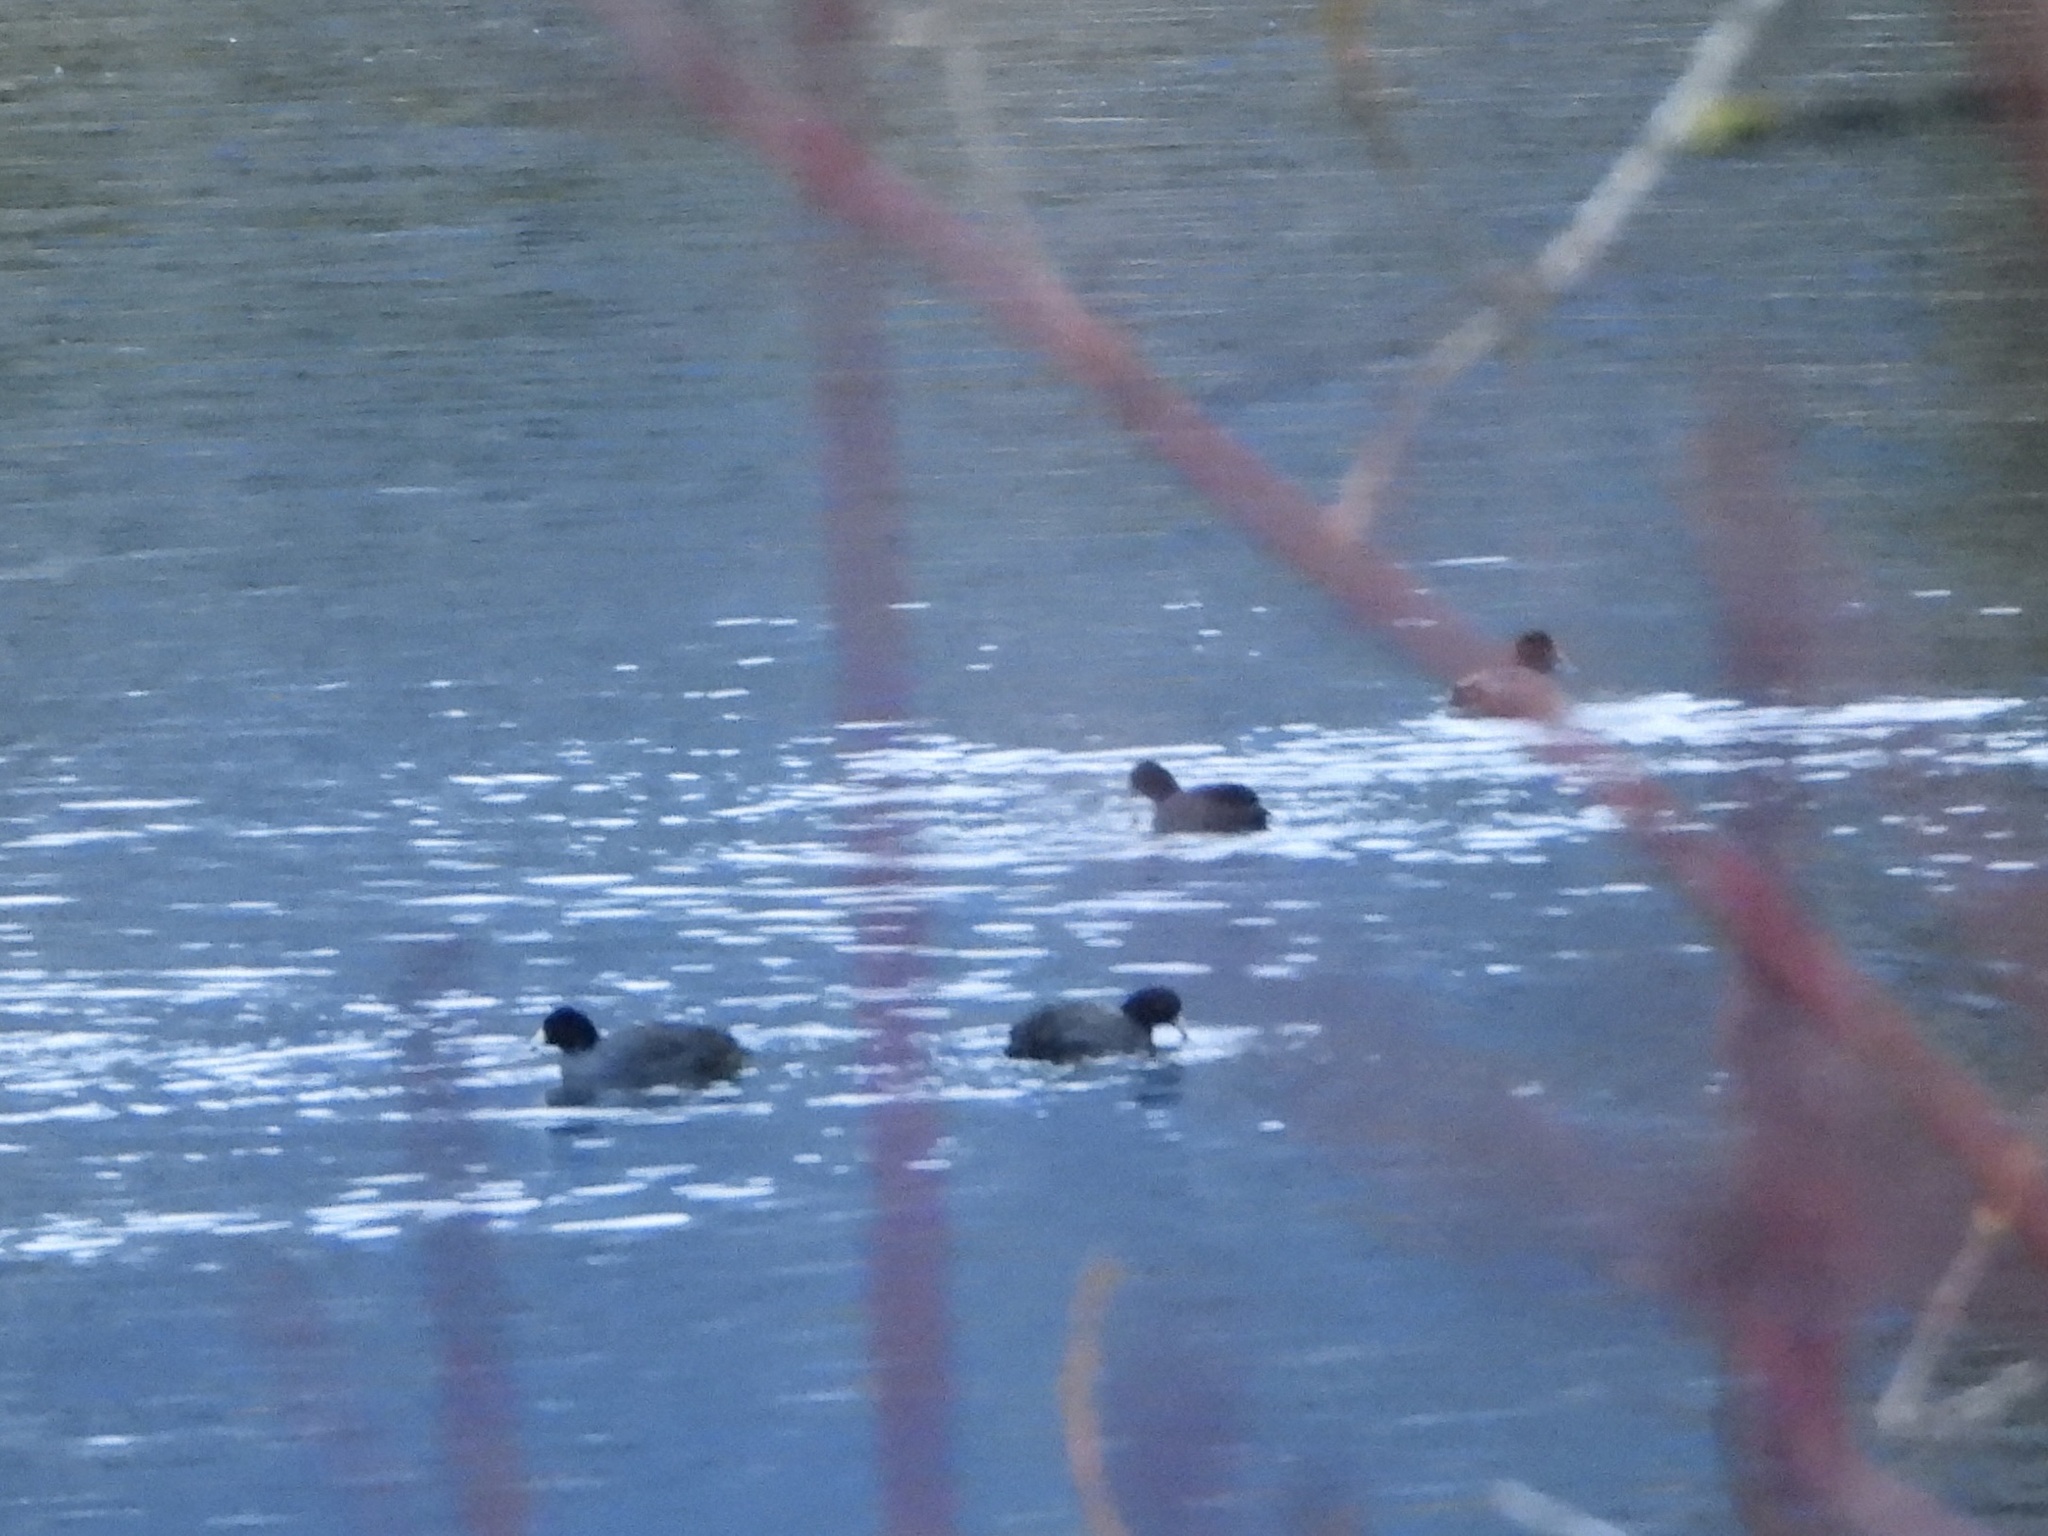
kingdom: Animalia
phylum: Chordata
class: Aves
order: Gruiformes
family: Rallidae
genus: Fulica
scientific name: Fulica americana
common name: American coot
